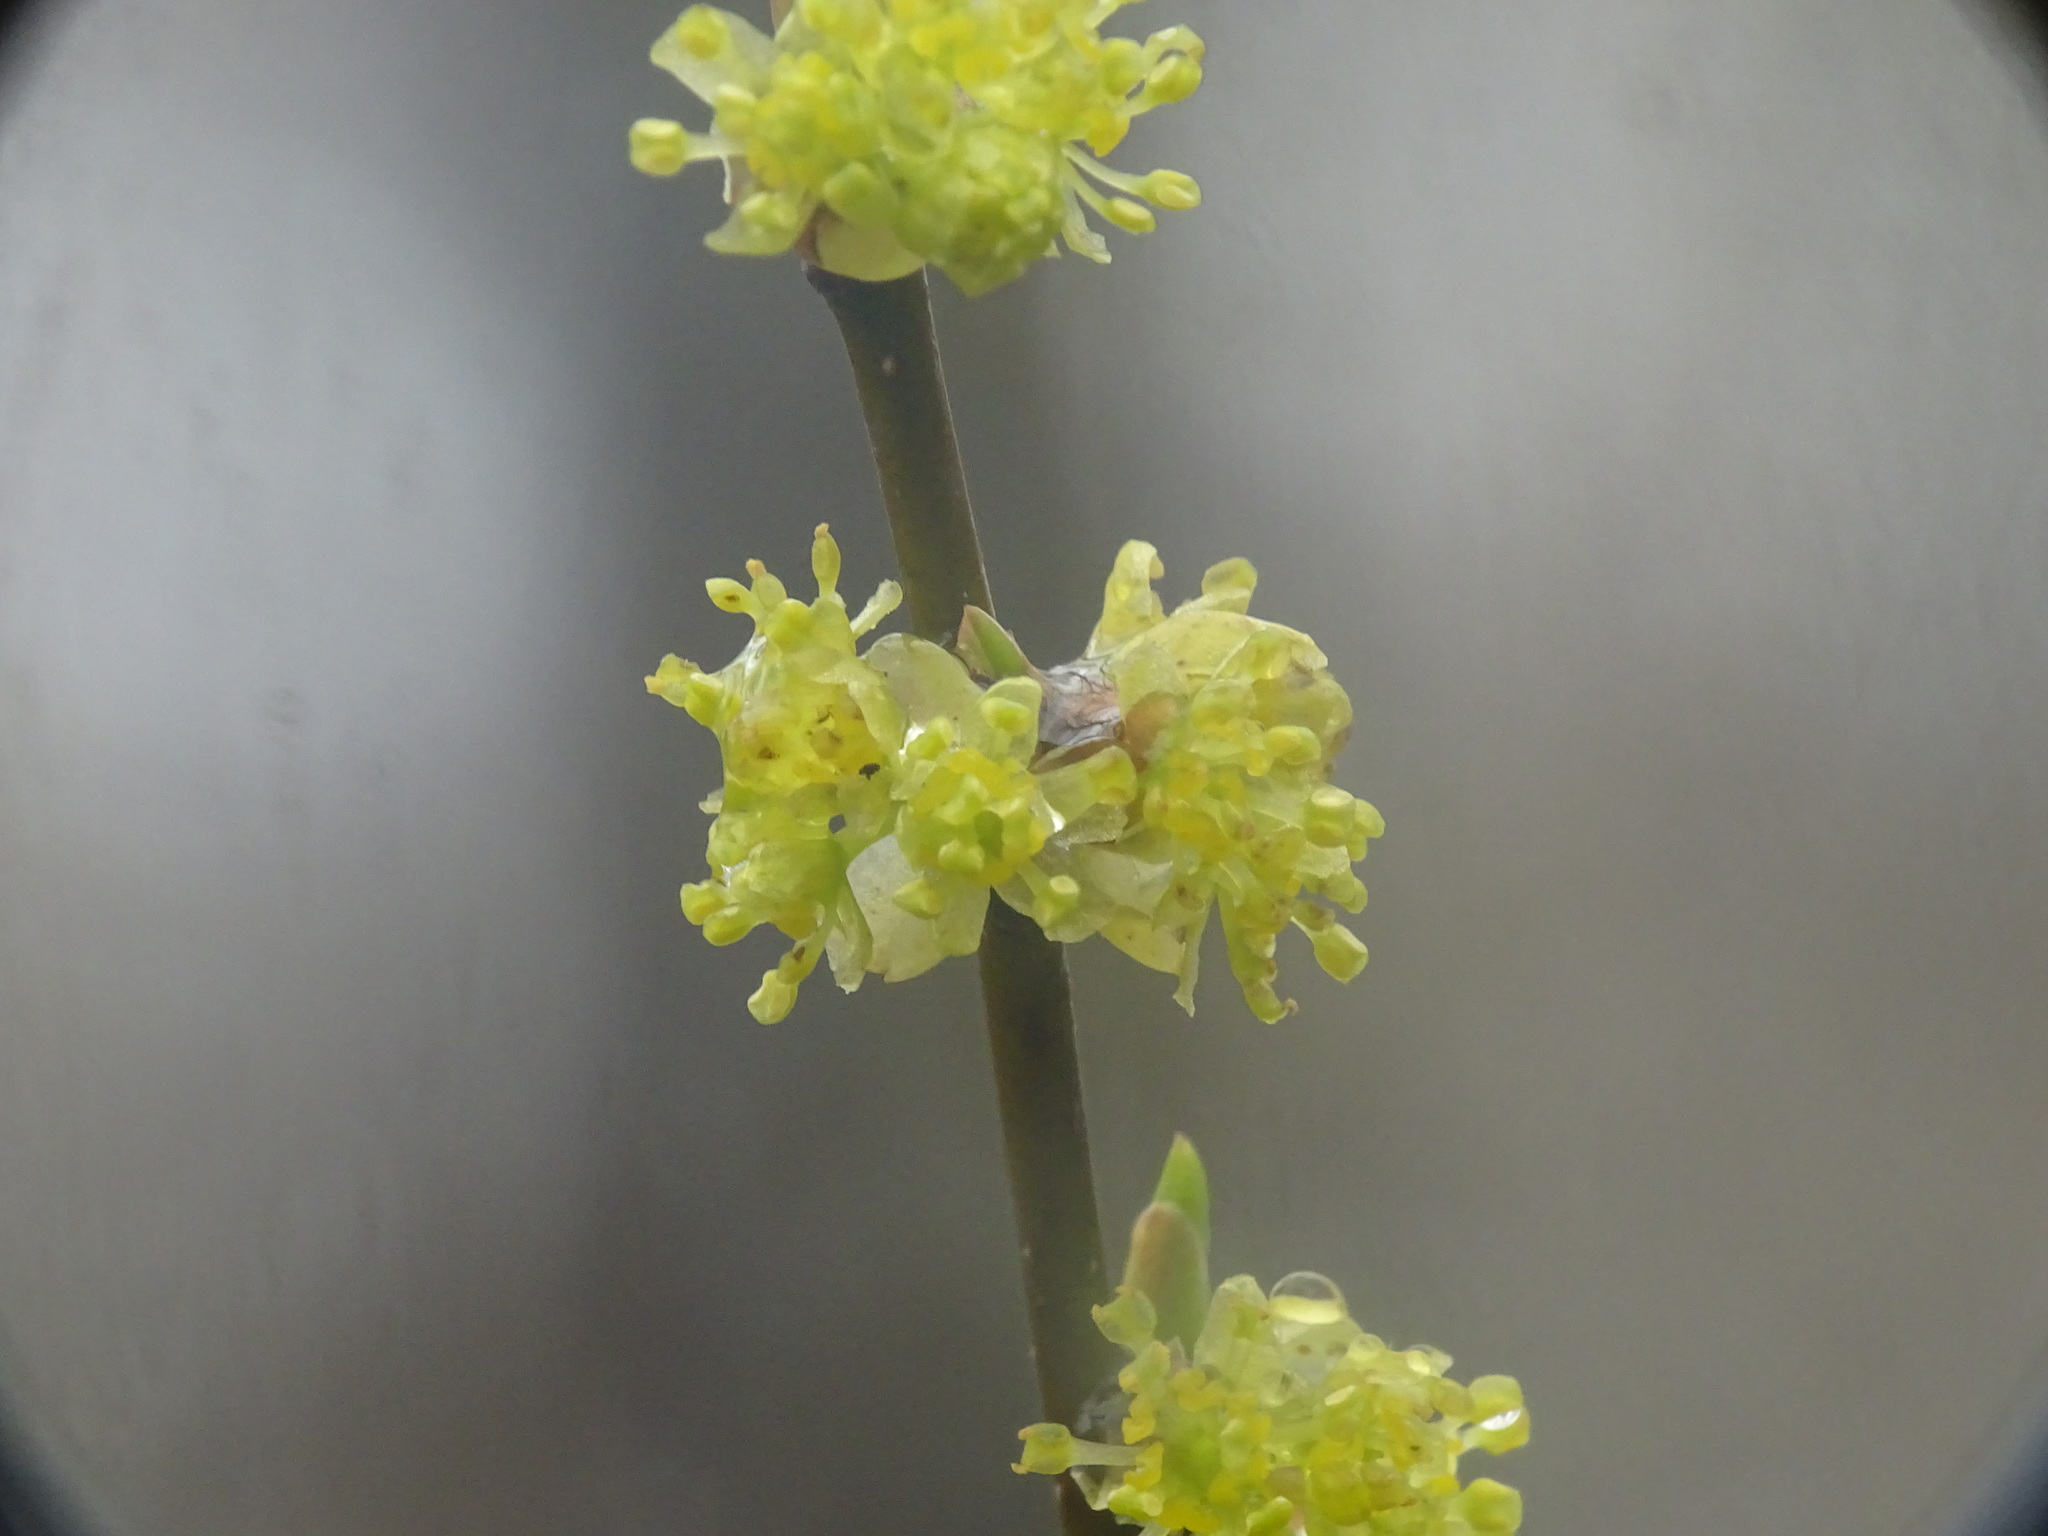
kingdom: Plantae
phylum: Tracheophyta
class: Magnoliopsida
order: Laurales
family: Lauraceae
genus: Lindera
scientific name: Lindera benzoin
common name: Spicebush
